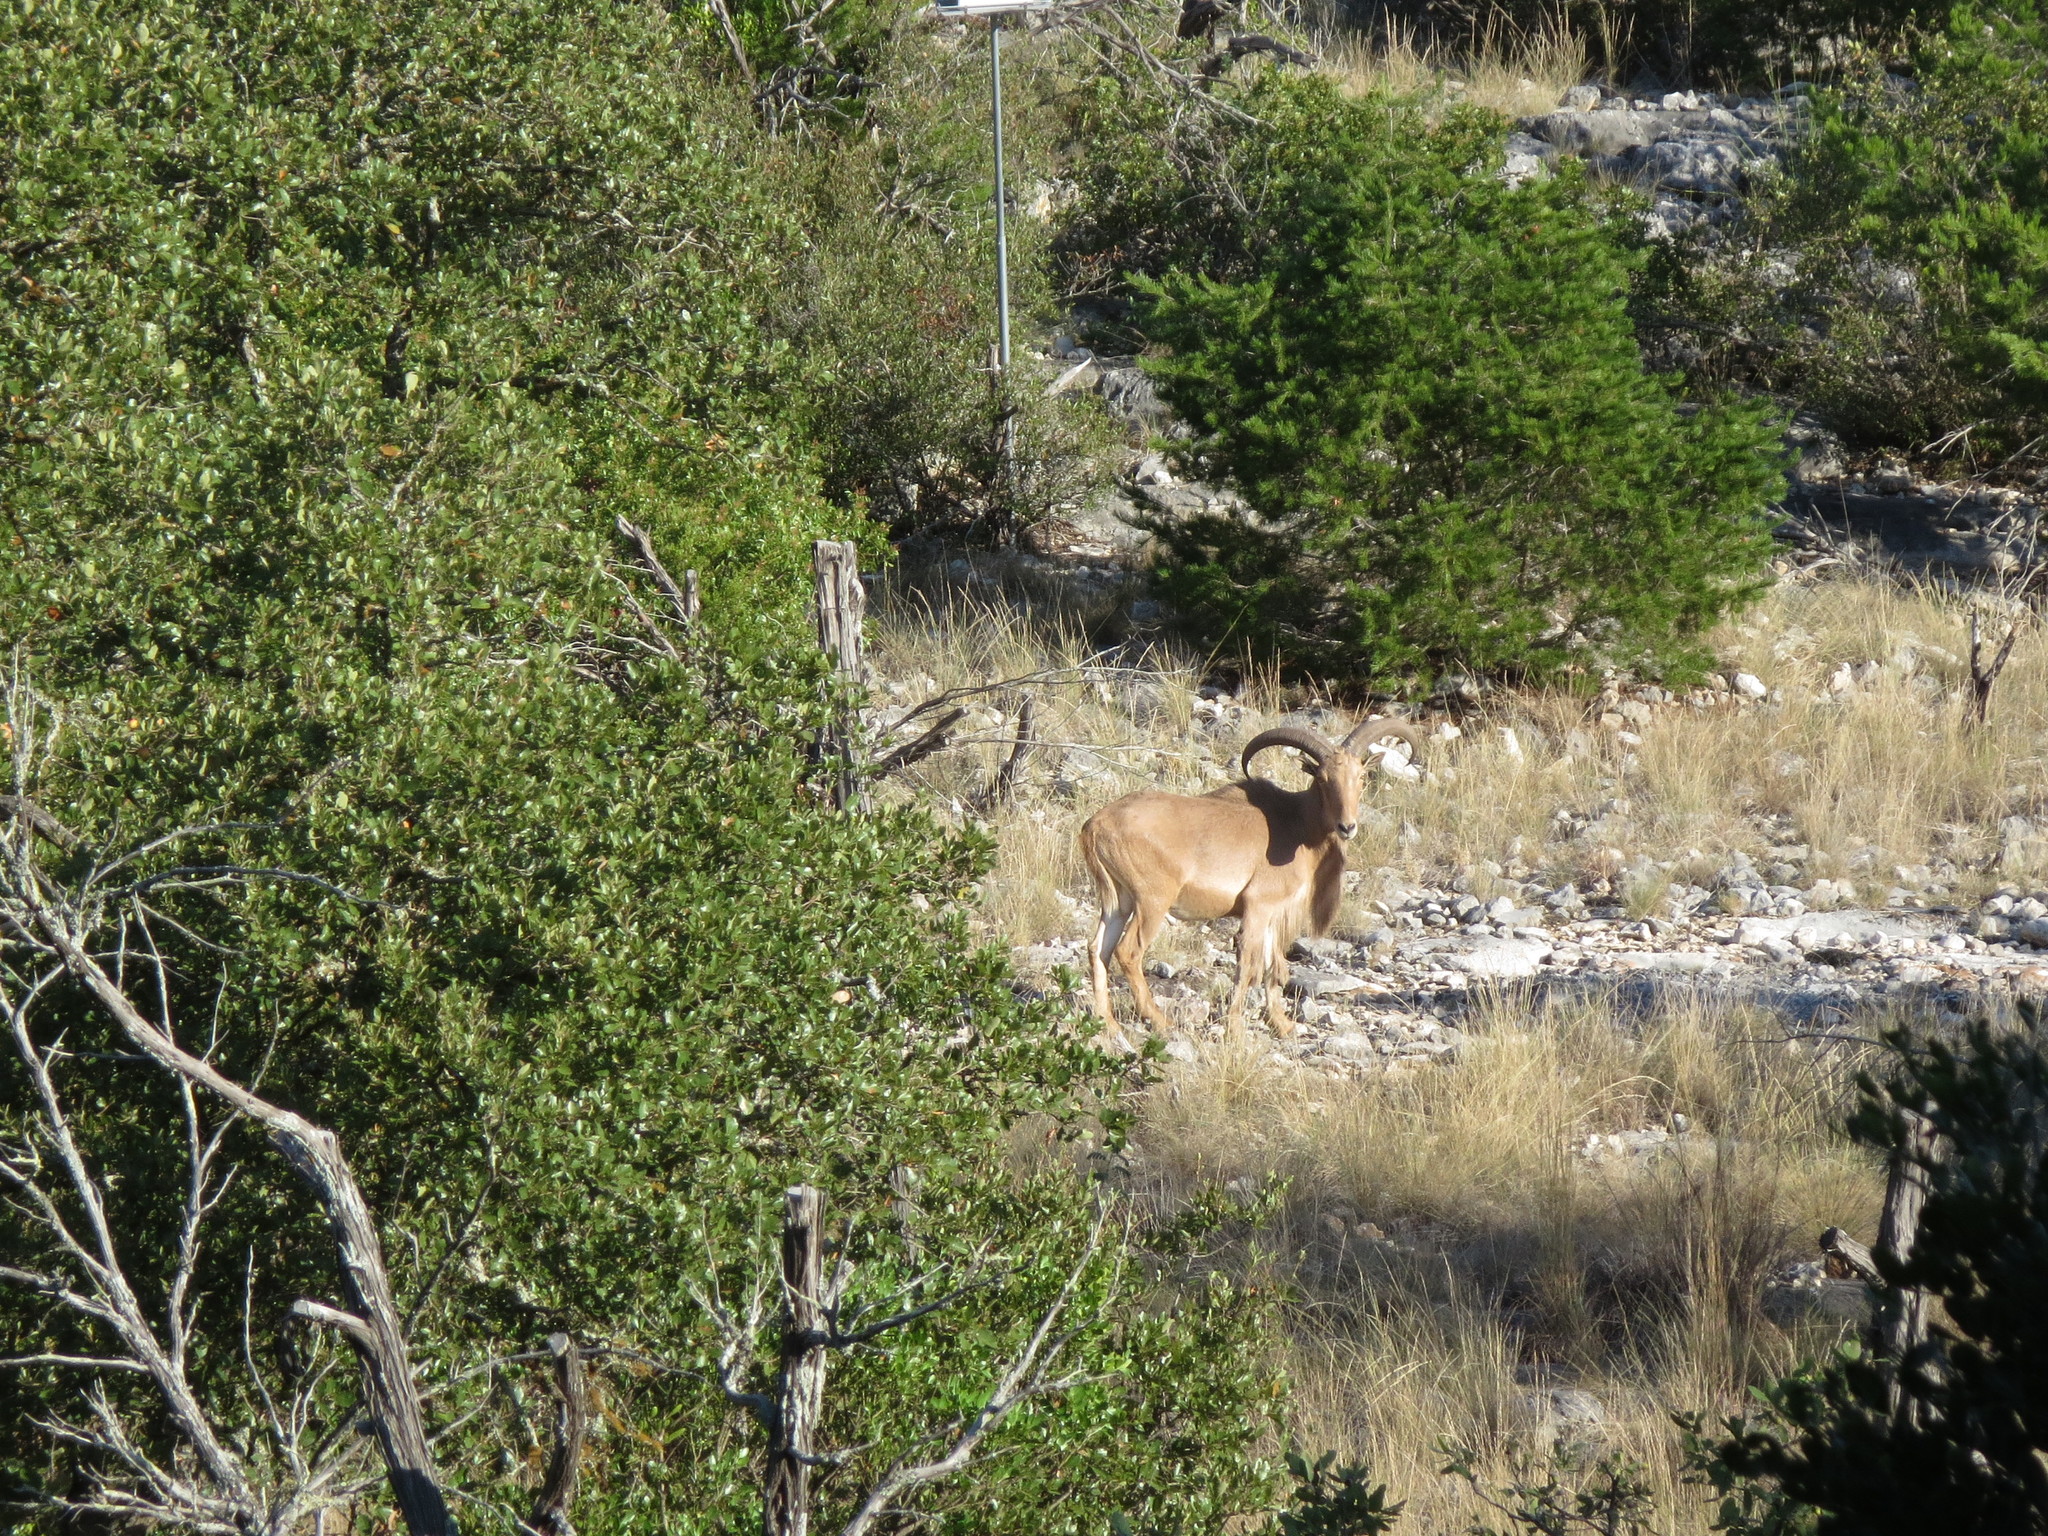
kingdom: Animalia
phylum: Chordata
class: Mammalia
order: Artiodactyla
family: Bovidae
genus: Ammotragus
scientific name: Ammotragus lervia
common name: Barbary sheep
